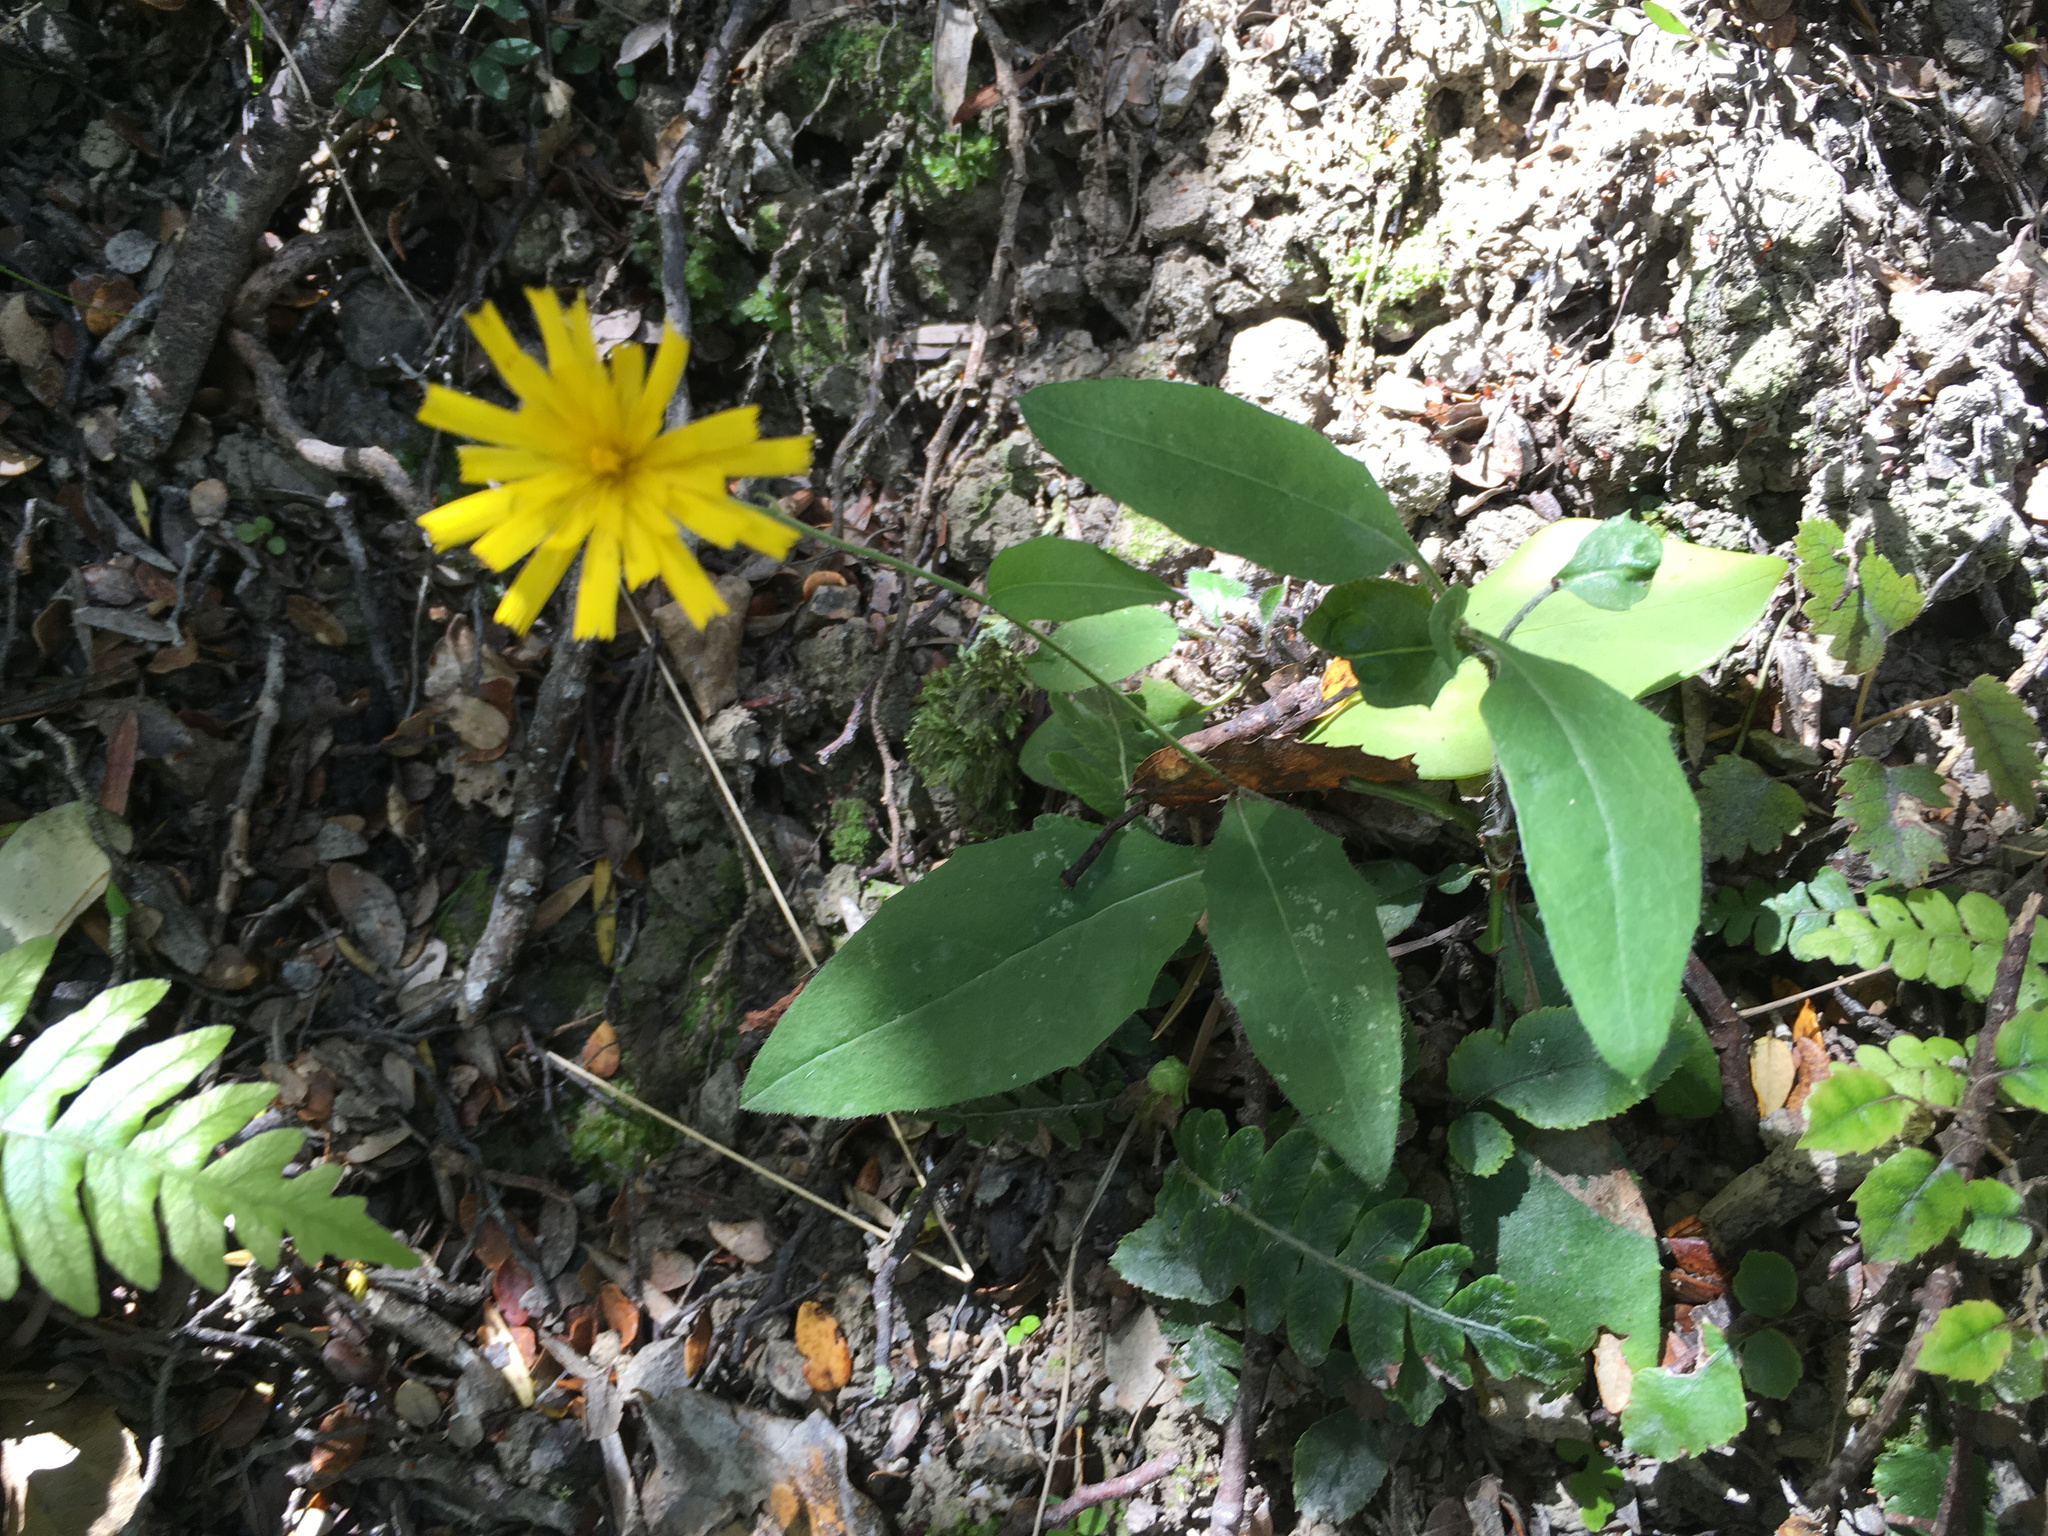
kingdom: Plantae
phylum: Tracheophyta
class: Magnoliopsida
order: Asterales
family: Asteraceae
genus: Hieracium
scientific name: Hieracium lepidulum
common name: Irregular-toothed hawkweed
